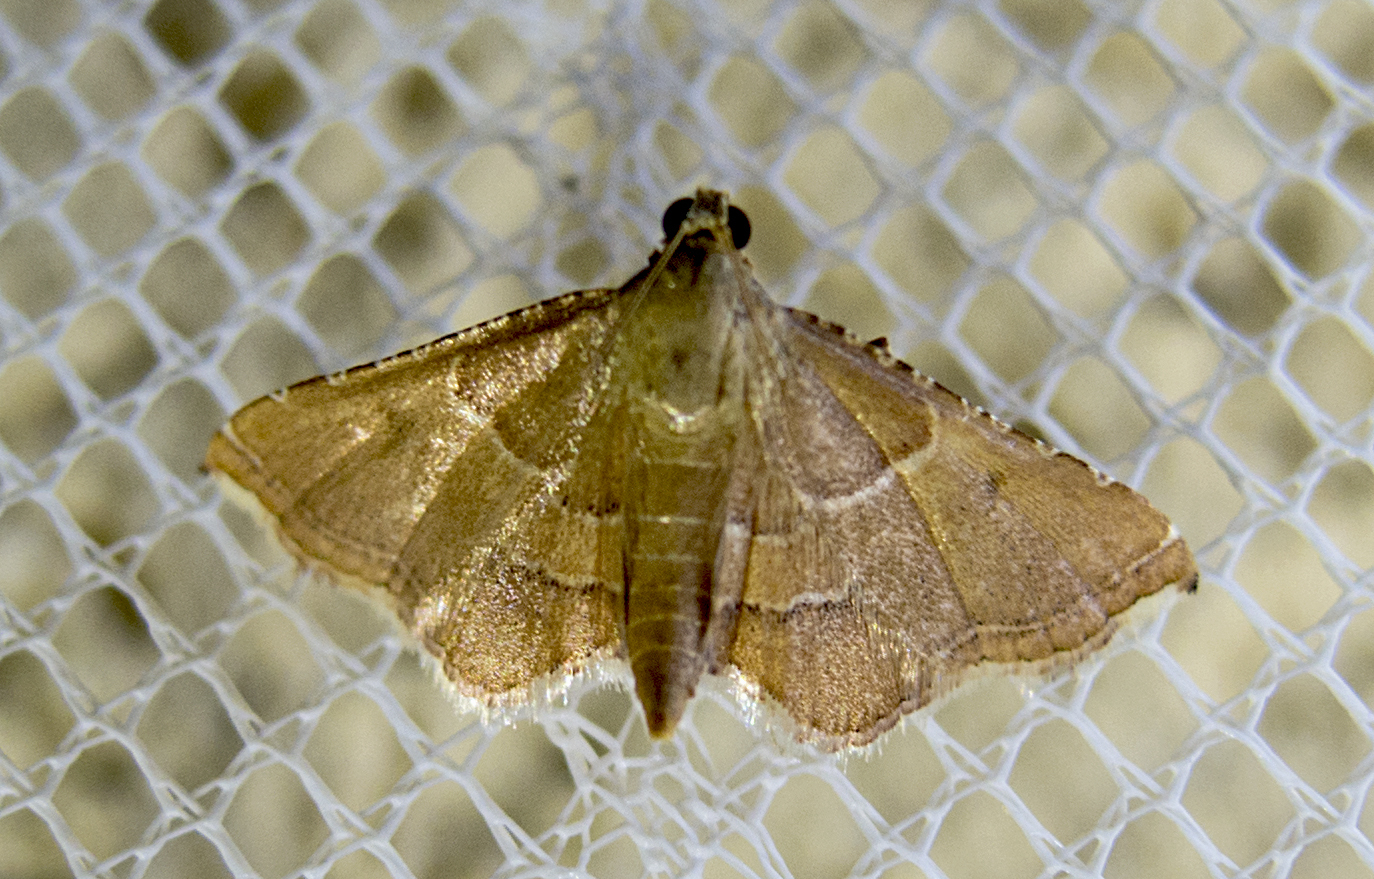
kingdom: Animalia
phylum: Arthropoda
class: Insecta
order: Lepidoptera
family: Pyralidae
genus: Endotricha
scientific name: Endotricha flammealis
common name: Rosy tabby
